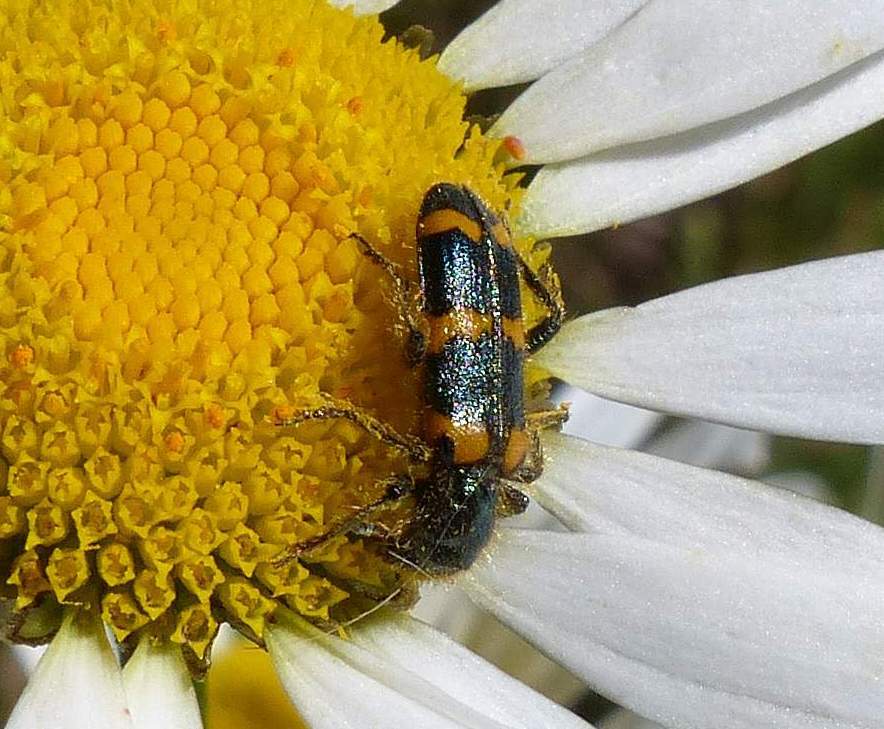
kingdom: Animalia
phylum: Arthropoda
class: Insecta
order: Coleoptera
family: Cleridae
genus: Trichodes
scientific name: Trichodes nutalli
